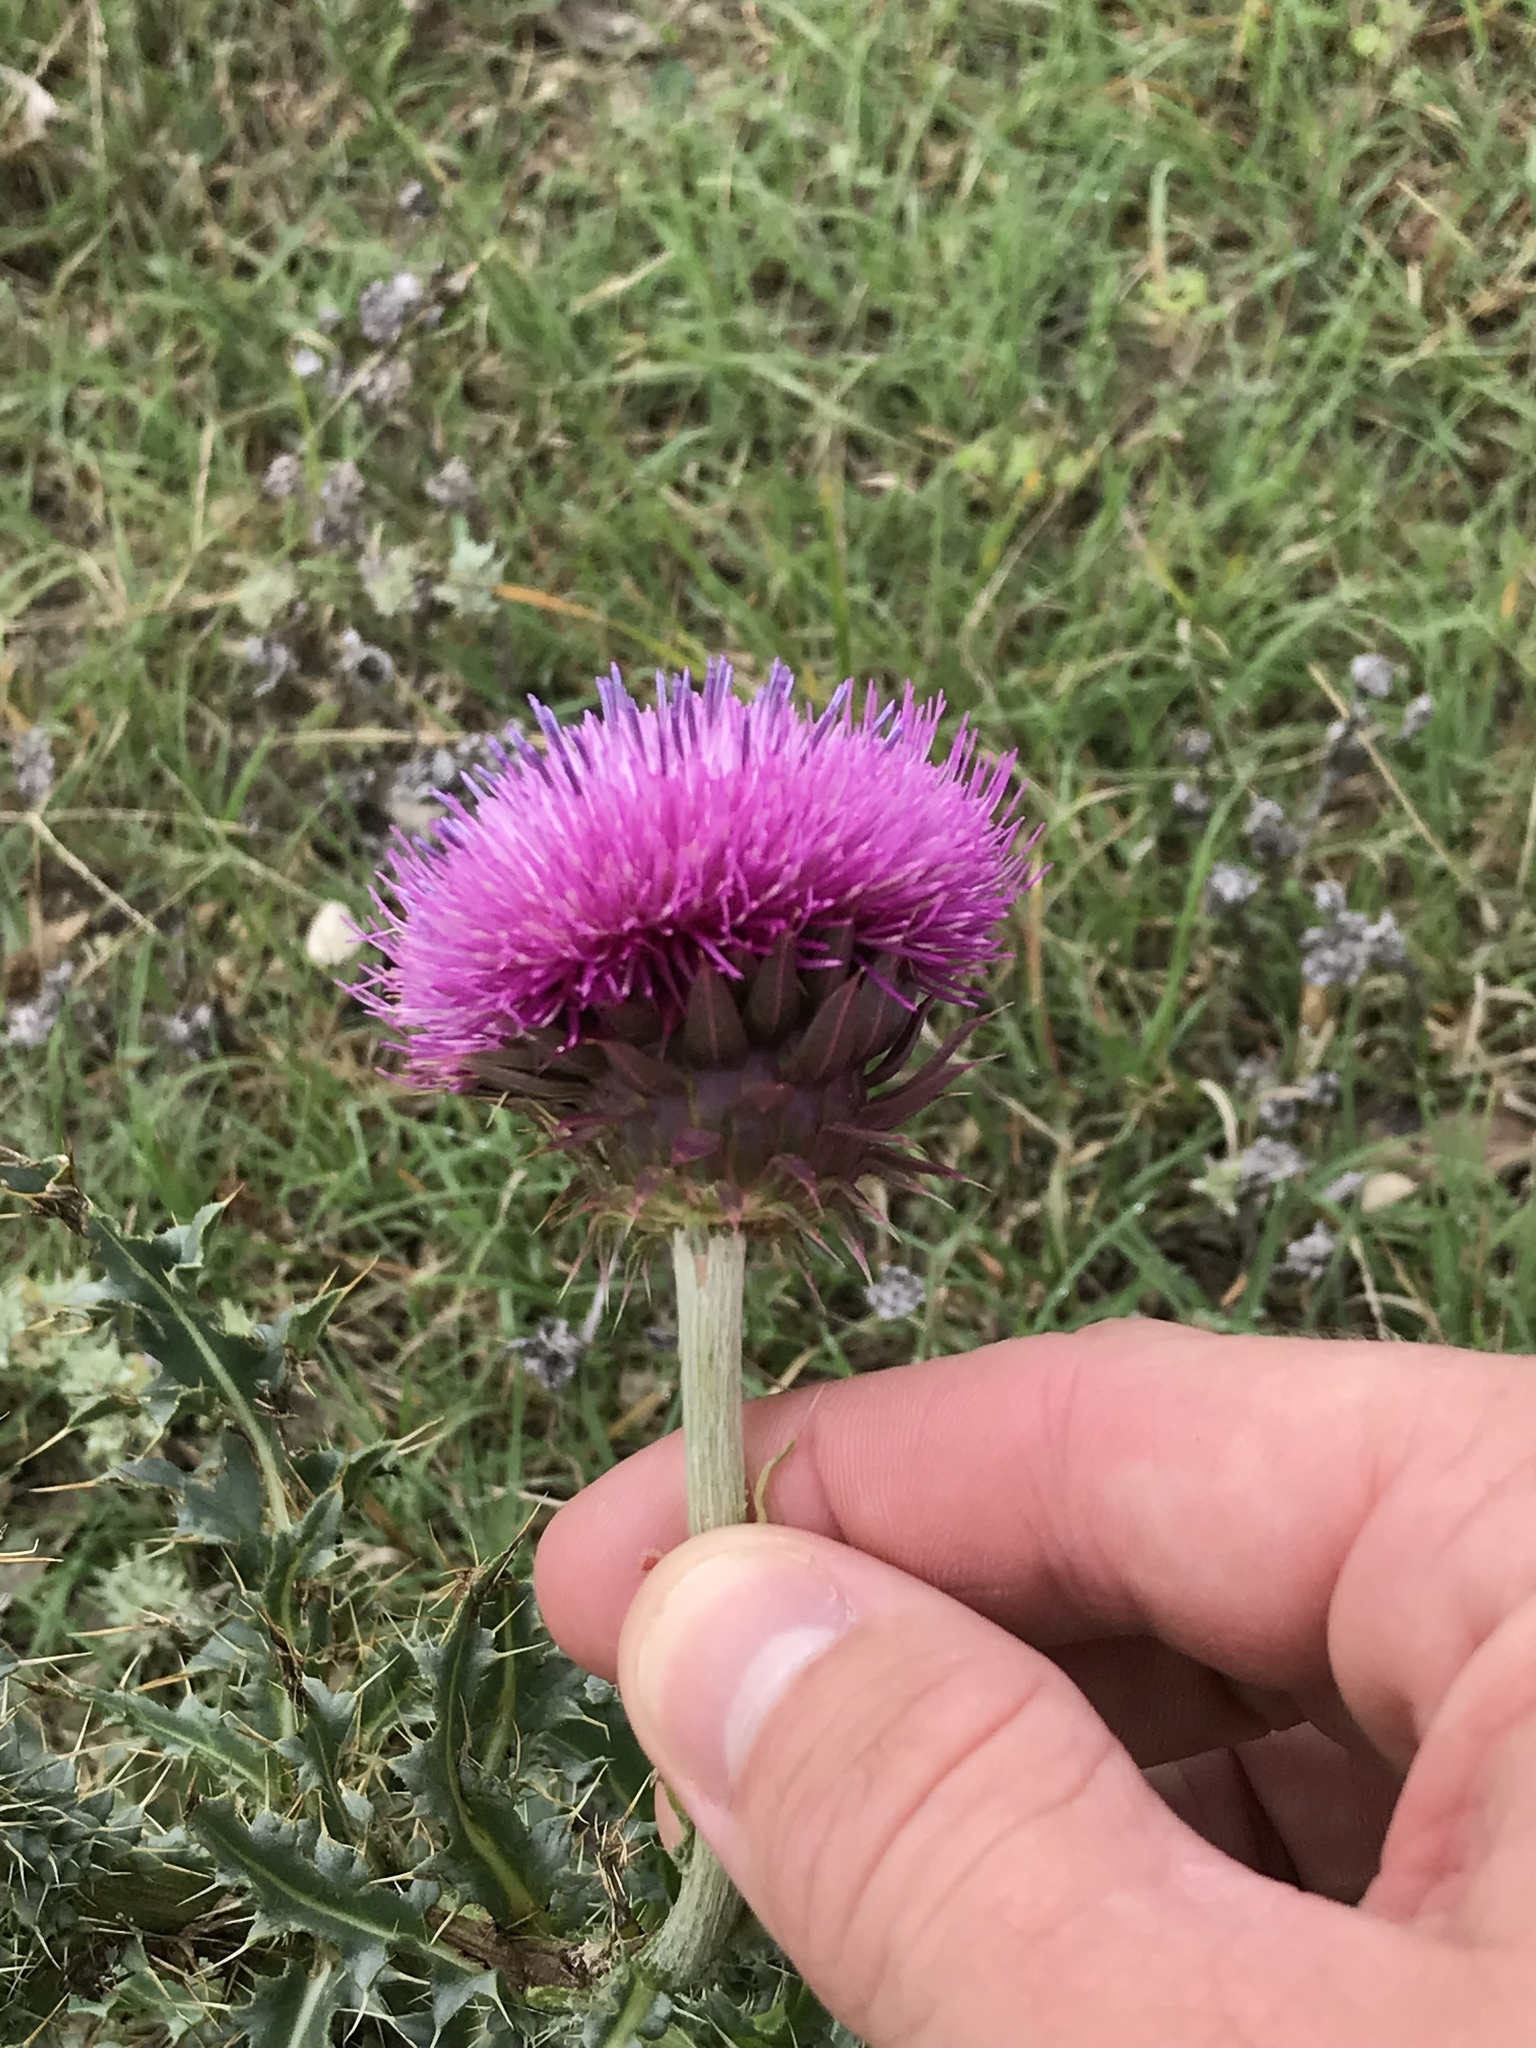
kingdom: Plantae
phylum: Tracheophyta
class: Magnoliopsida
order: Asterales
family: Asteraceae
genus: Carduus
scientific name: Carduus nutans
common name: Musk thistle
